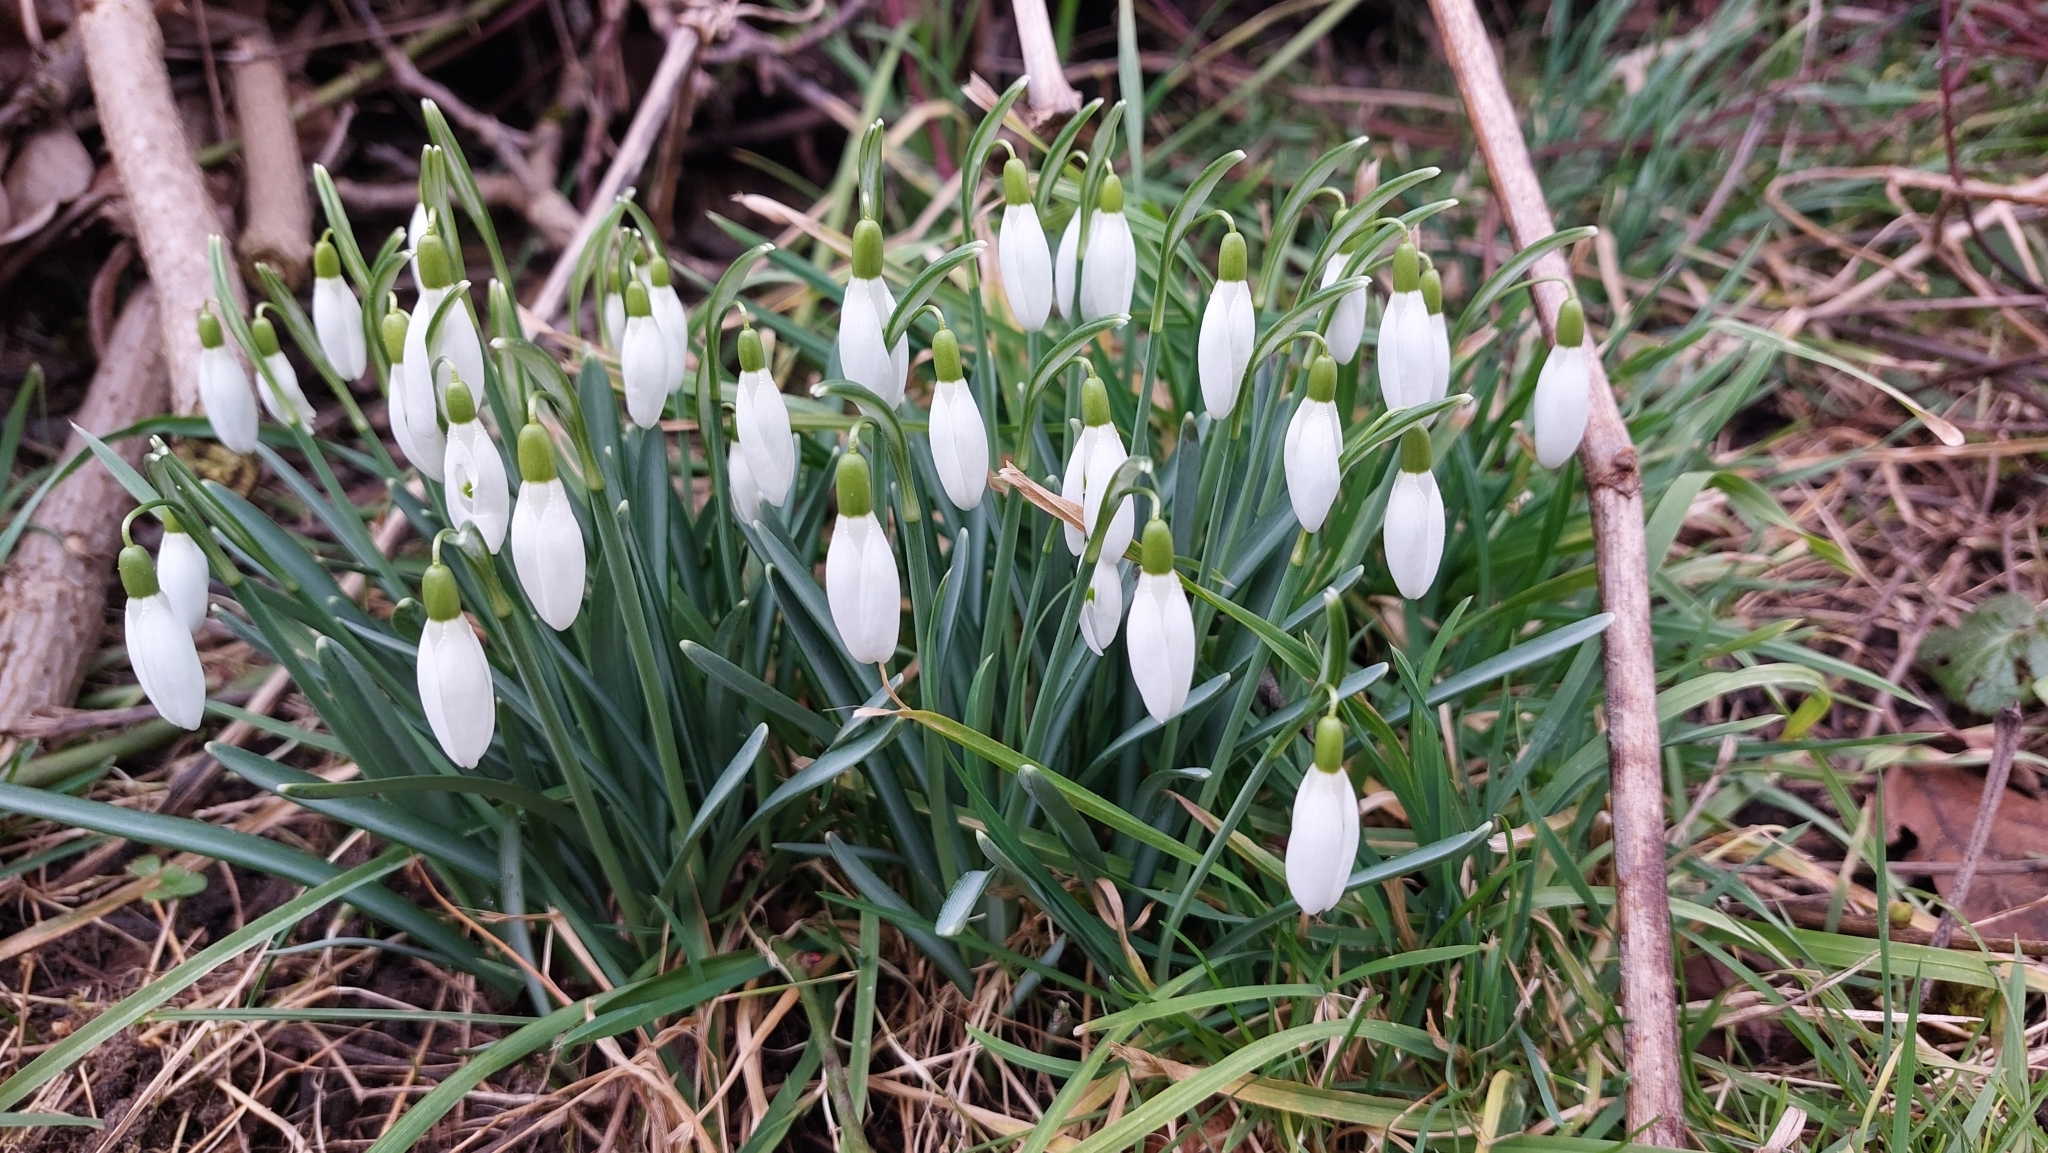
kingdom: Plantae
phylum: Tracheophyta
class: Liliopsida
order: Asparagales
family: Amaryllidaceae
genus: Galanthus
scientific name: Galanthus nivalis
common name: Snowdrop
